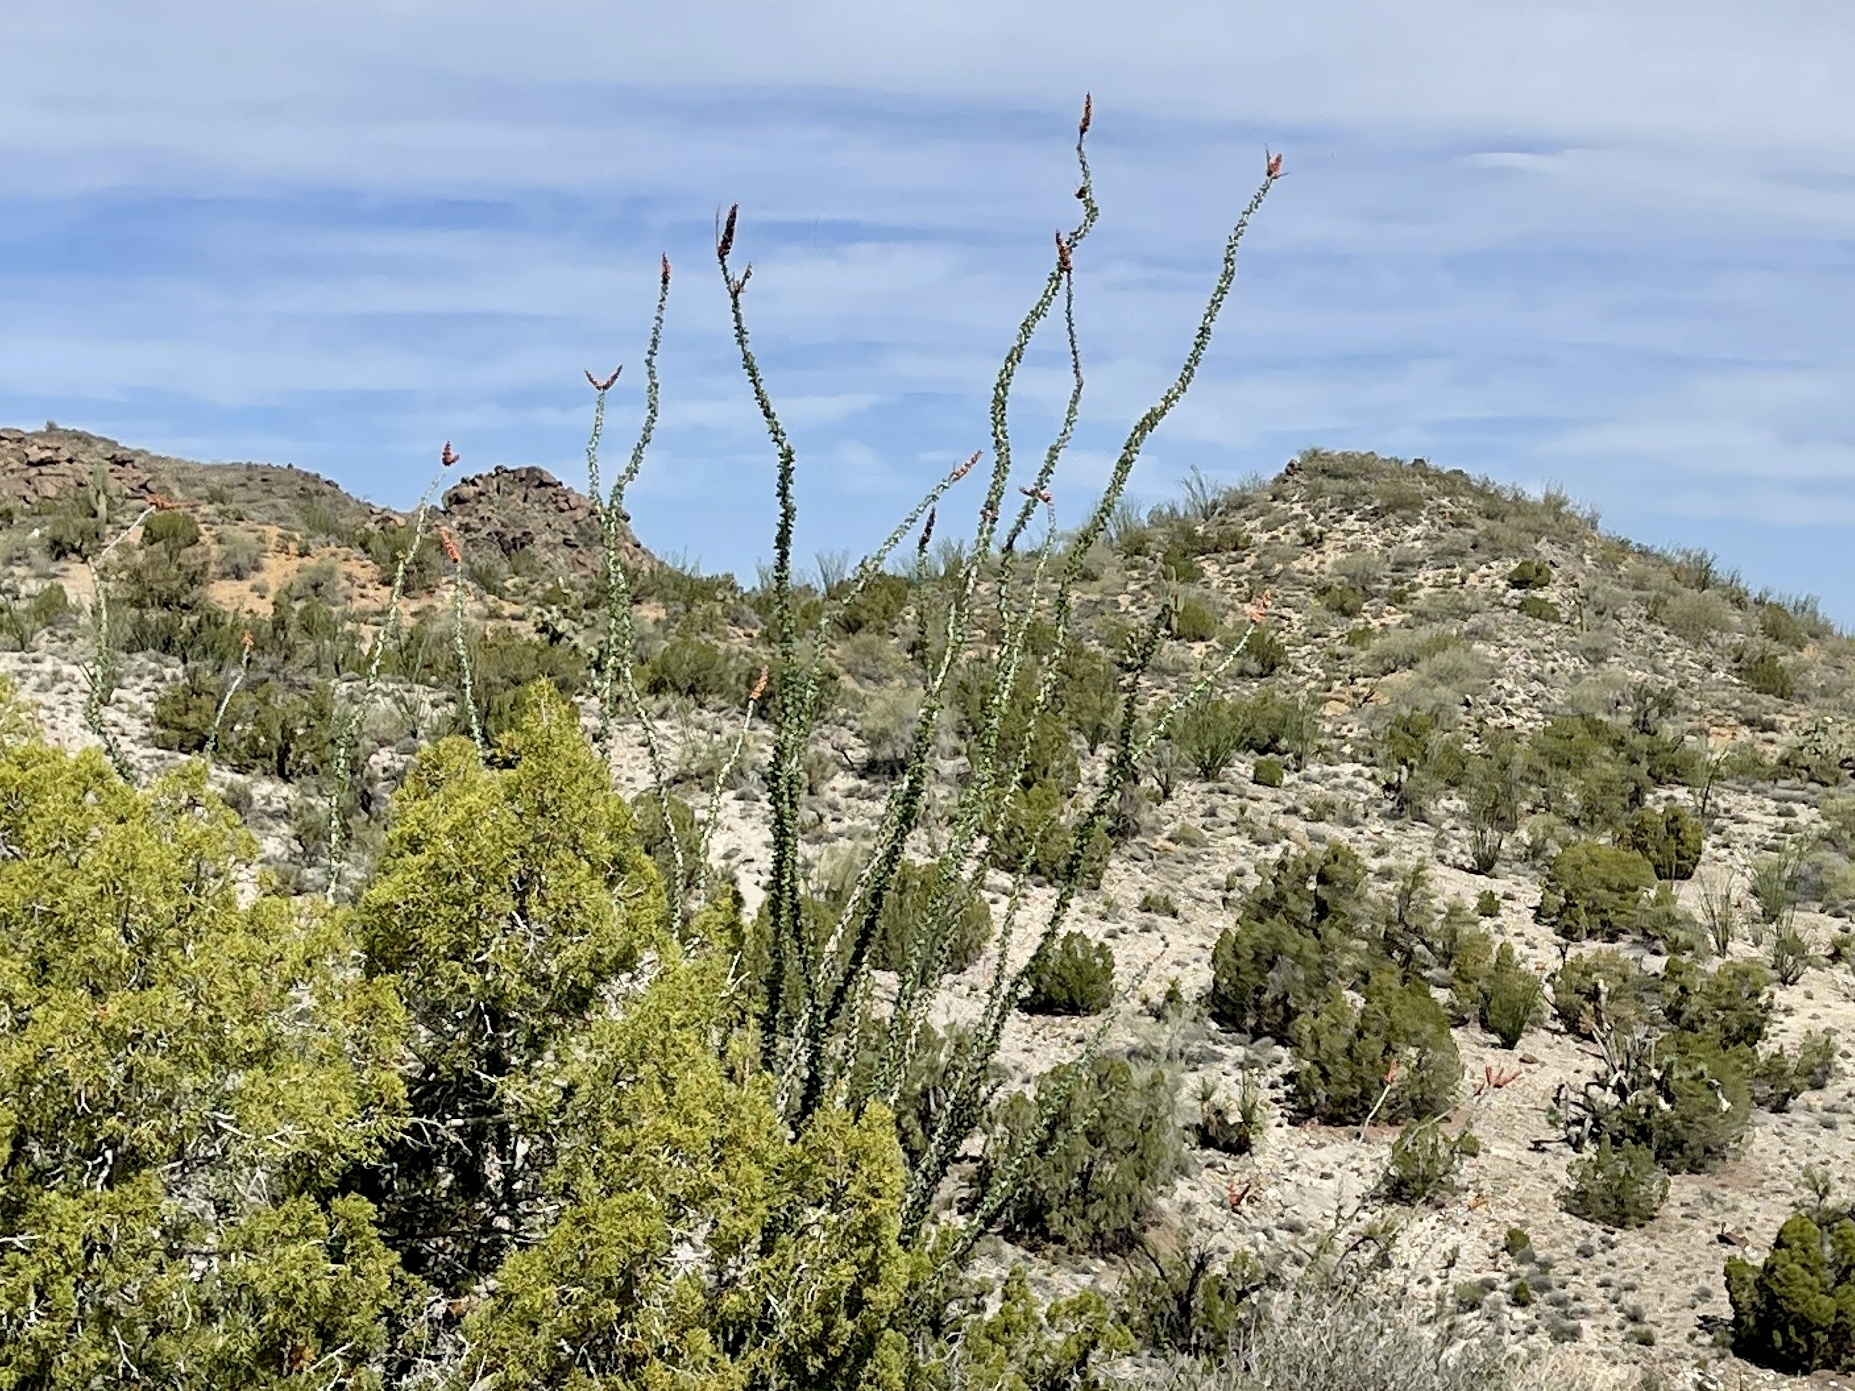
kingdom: Plantae
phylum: Tracheophyta
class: Magnoliopsida
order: Ericales
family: Fouquieriaceae
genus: Fouquieria
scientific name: Fouquieria splendens
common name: Vine-cactus
